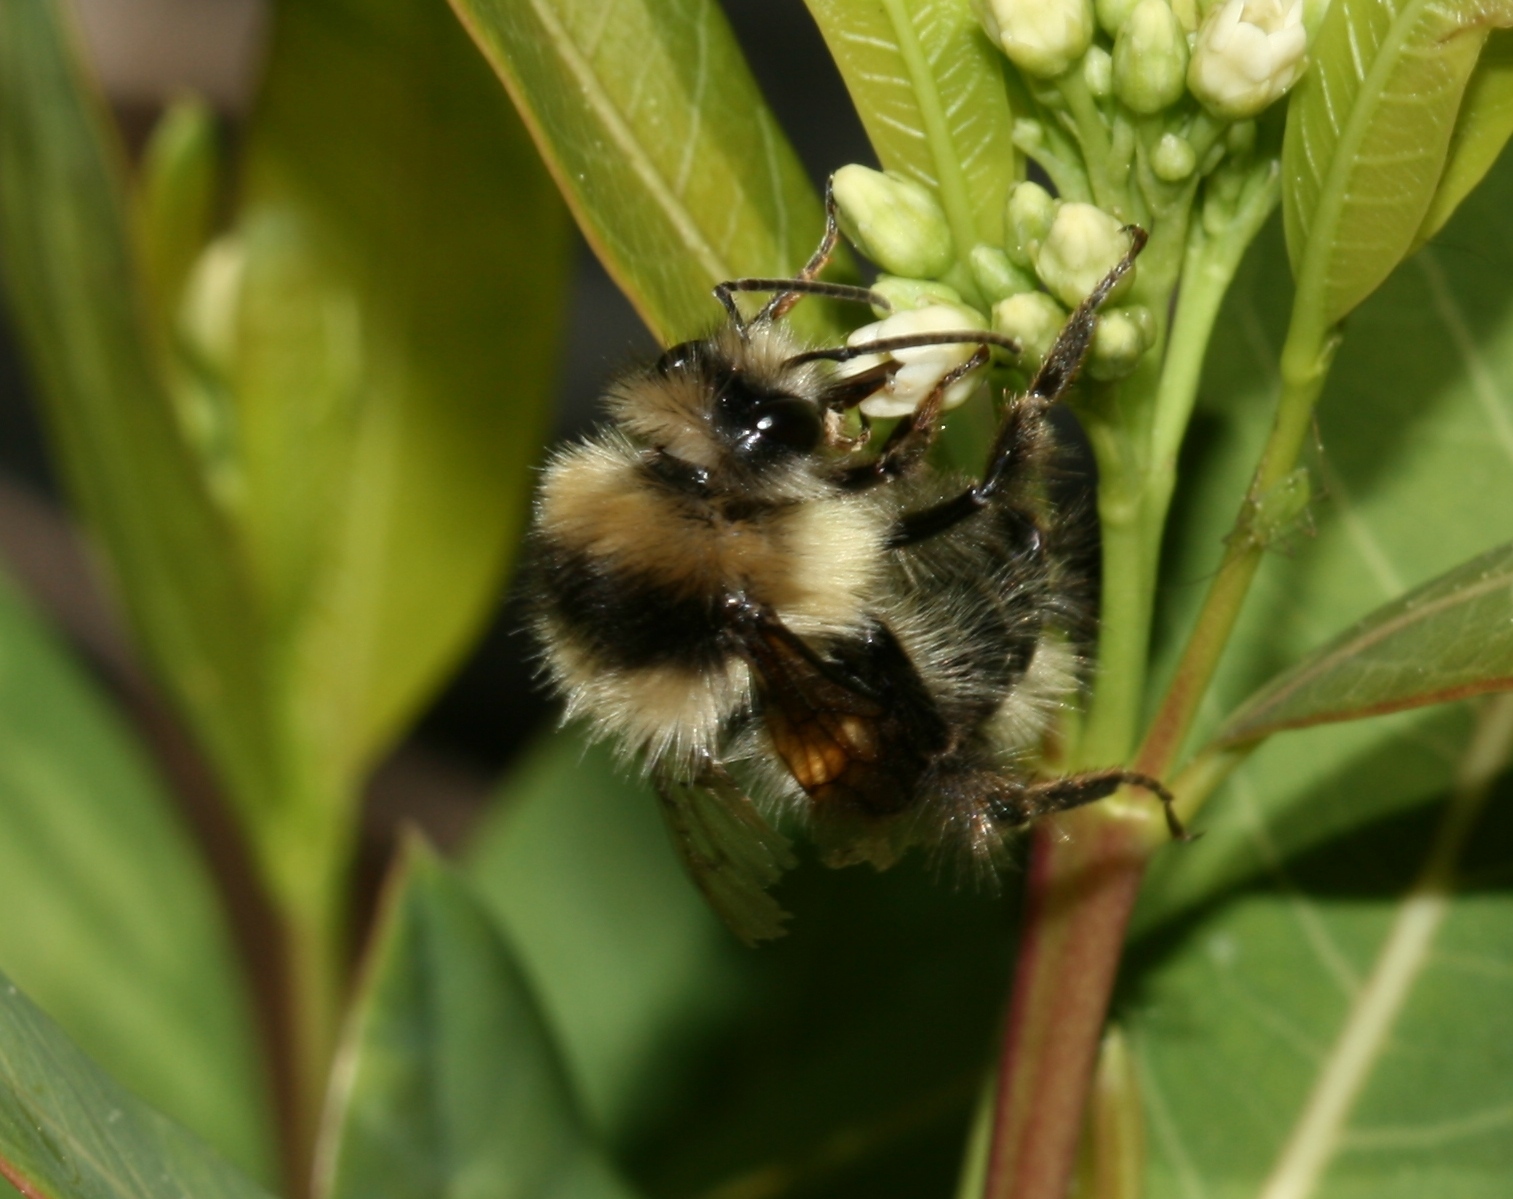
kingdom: Animalia
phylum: Arthropoda
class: Insecta
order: Hymenoptera
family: Apidae
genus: Bombus
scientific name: Bombus melanopygus
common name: Black tail bumble bee
